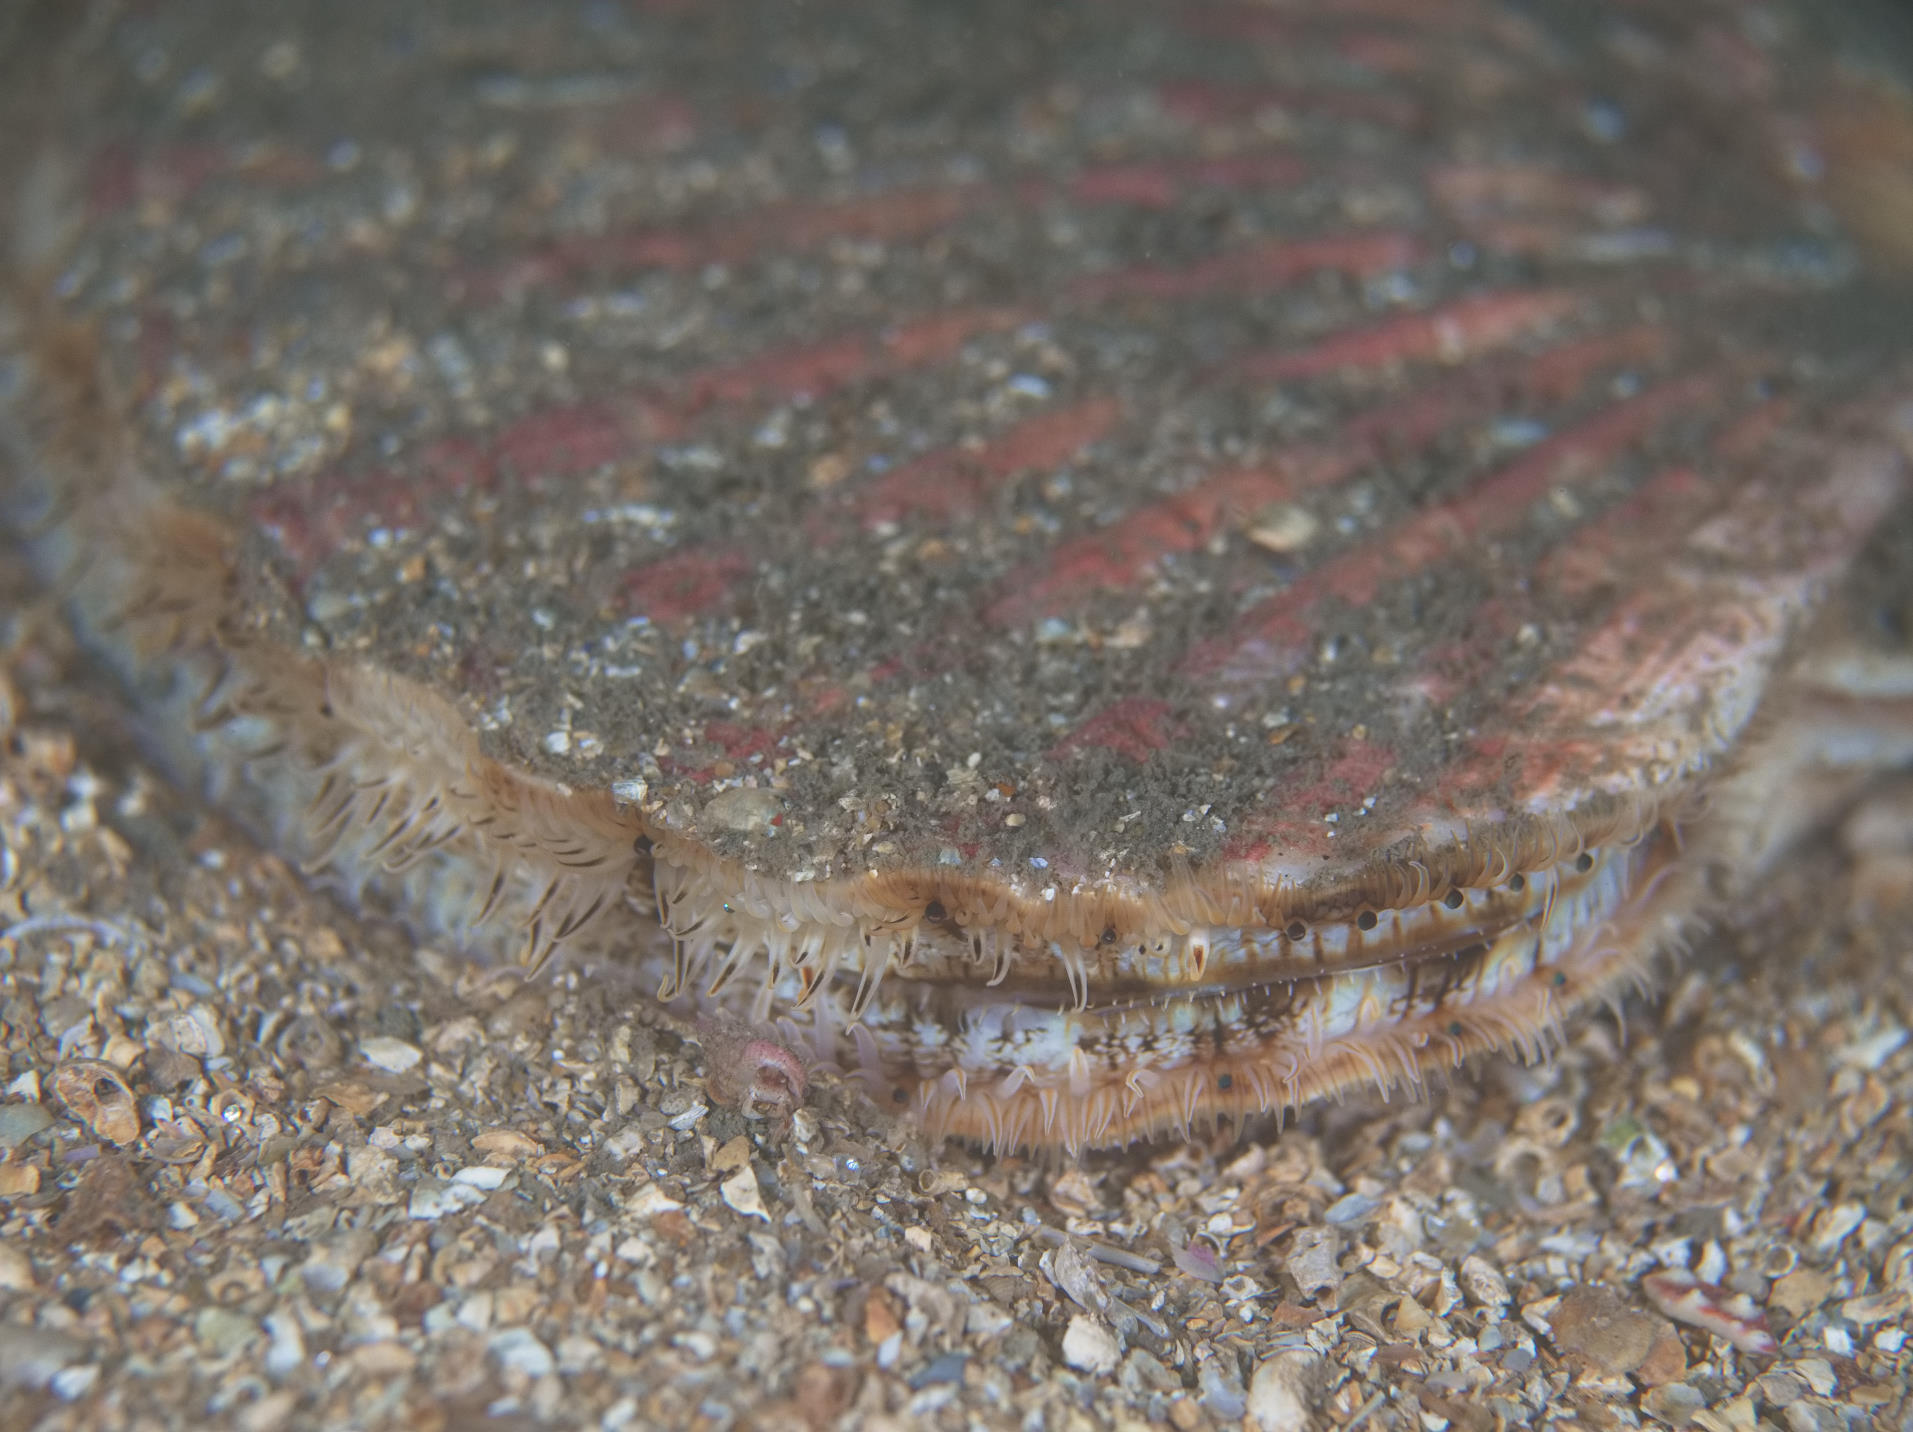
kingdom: Animalia
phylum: Mollusca
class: Bivalvia
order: Pectinida
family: Pectinidae
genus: Pecten
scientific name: Pecten maximus
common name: Great scallop
